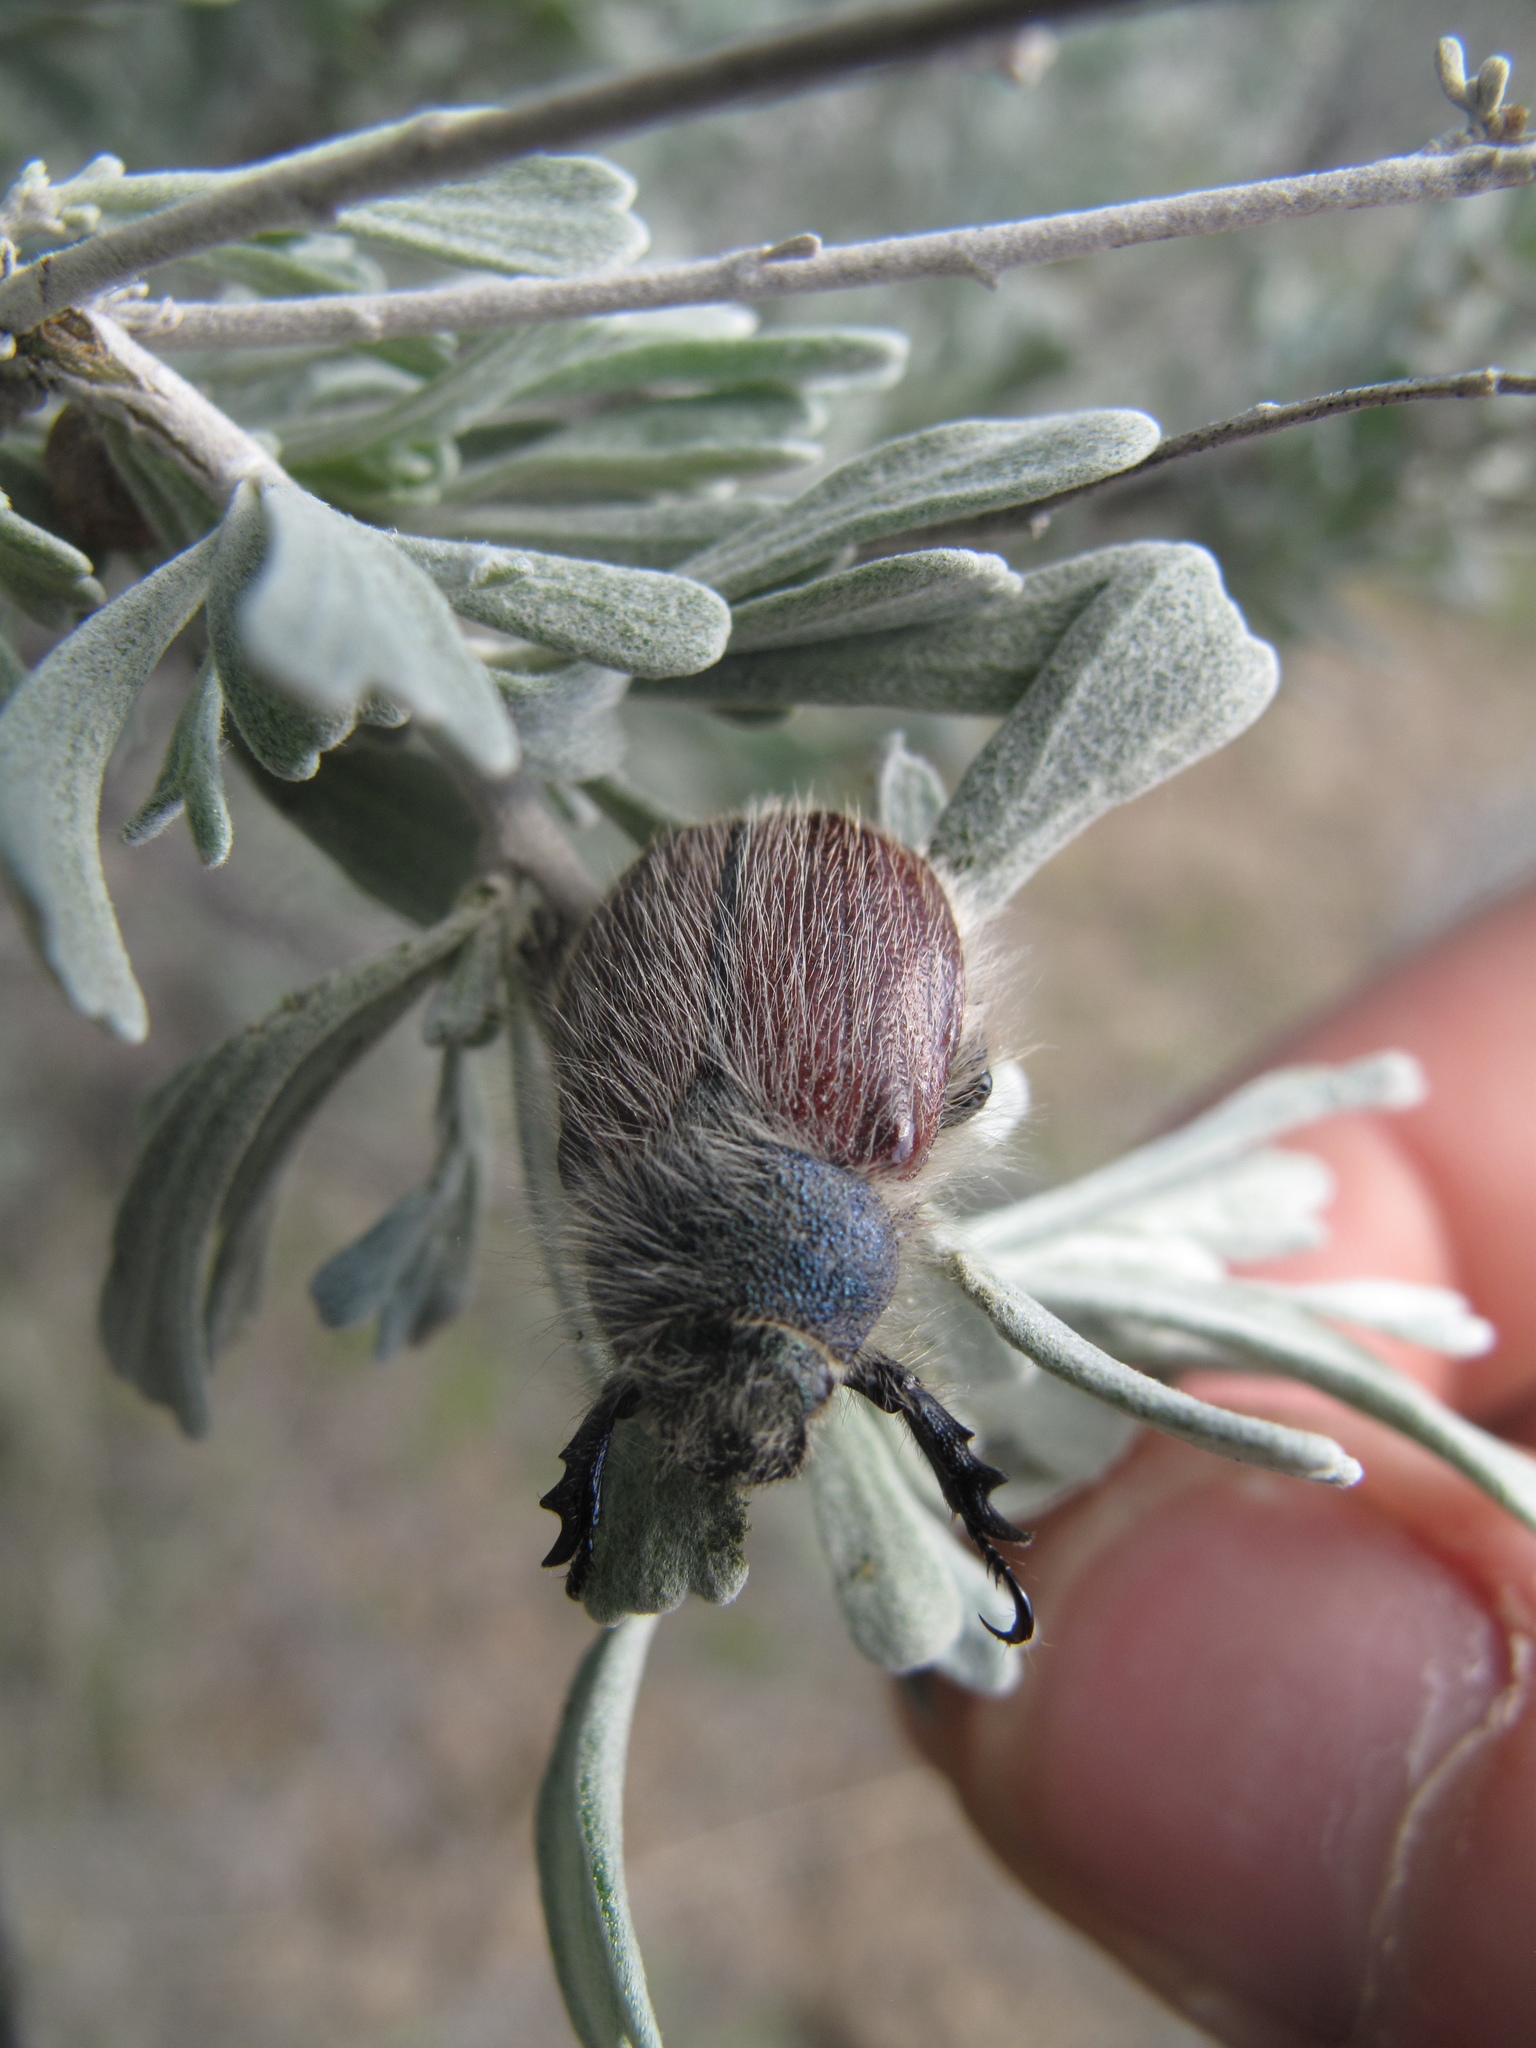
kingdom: Animalia
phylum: Arthropoda
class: Insecta
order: Coleoptera
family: Scarabaeidae
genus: Paracotalpa
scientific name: Paracotalpa granicollis
